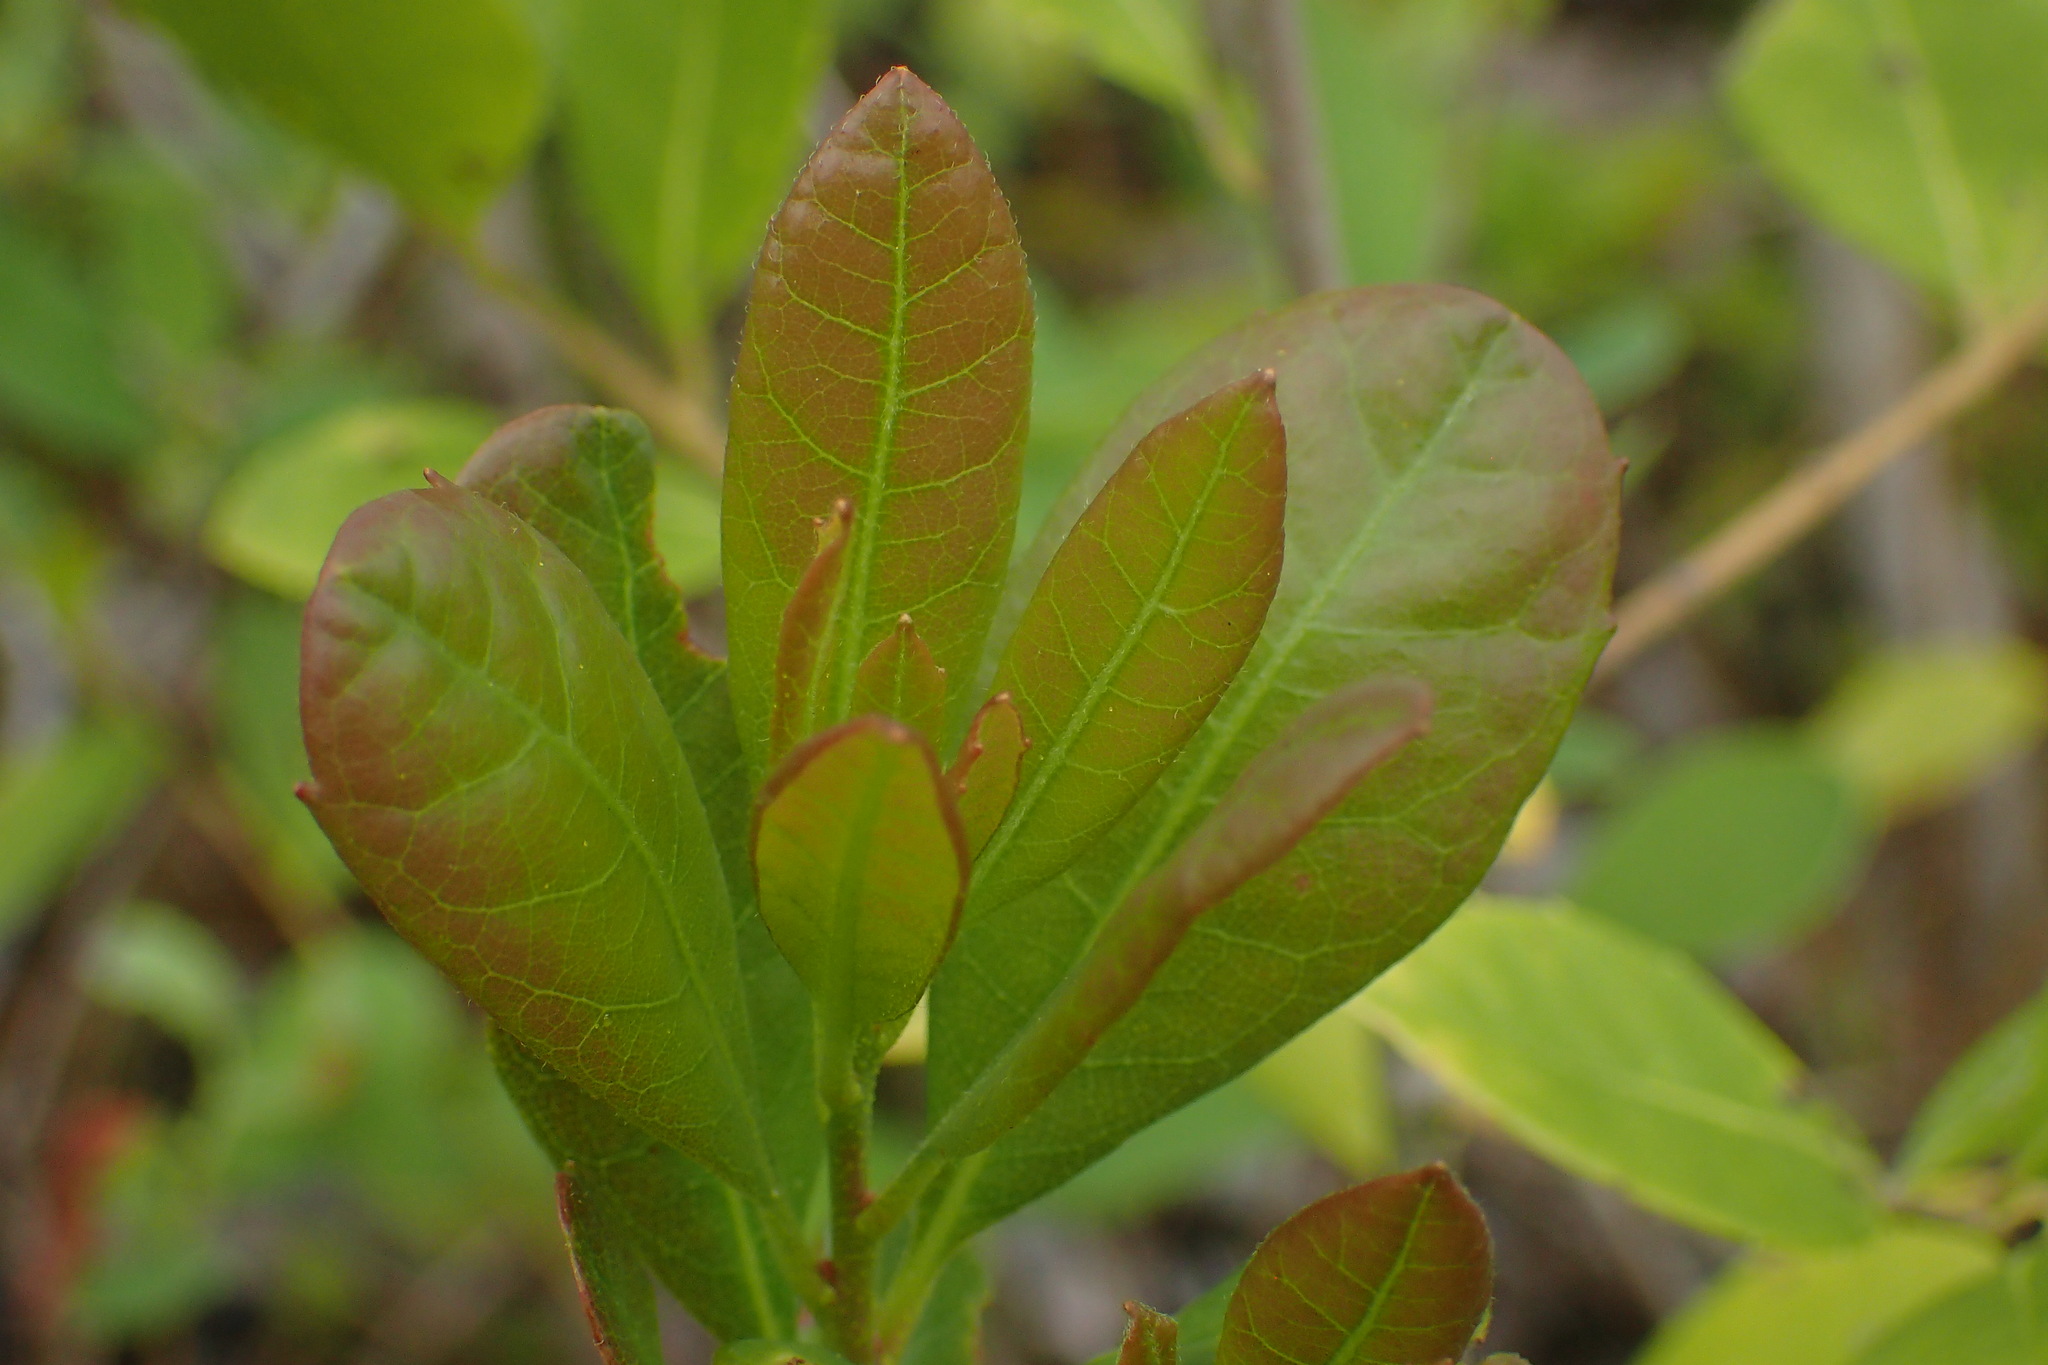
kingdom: Plantae
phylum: Tracheophyta
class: Magnoliopsida
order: Fagales
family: Myricaceae
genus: Morella
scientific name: Morella caroliniensis
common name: Evergreen bayberry
